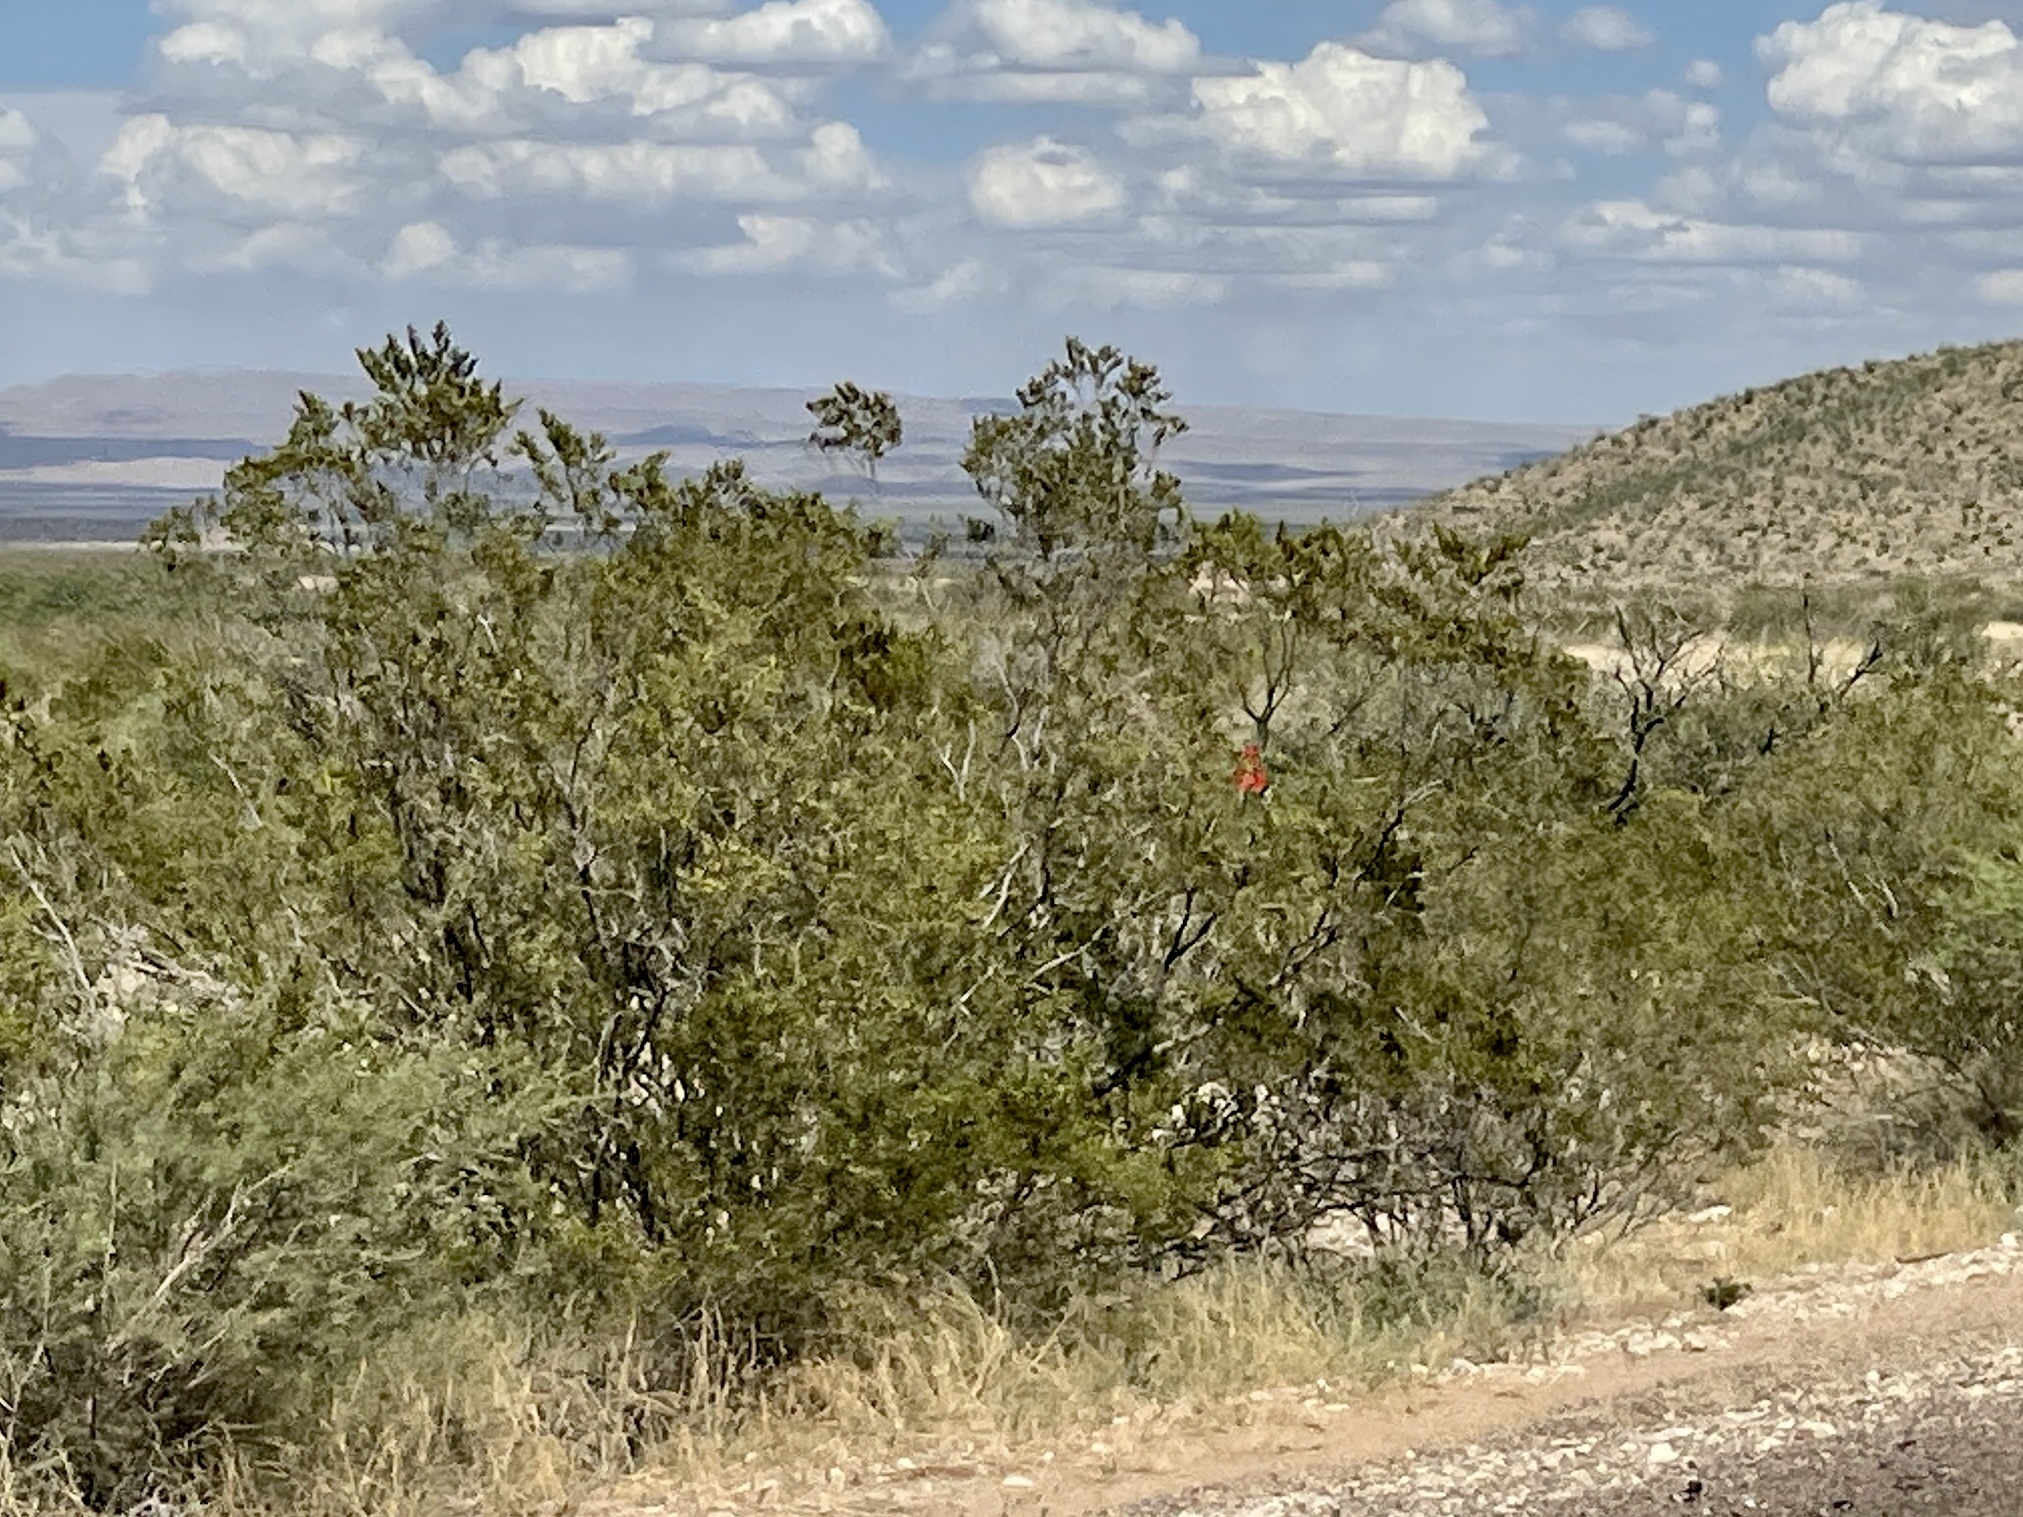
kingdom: Plantae
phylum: Tracheophyta
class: Magnoliopsida
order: Zygophyllales
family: Zygophyllaceae
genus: Larrea
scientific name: Larrea tridentata
